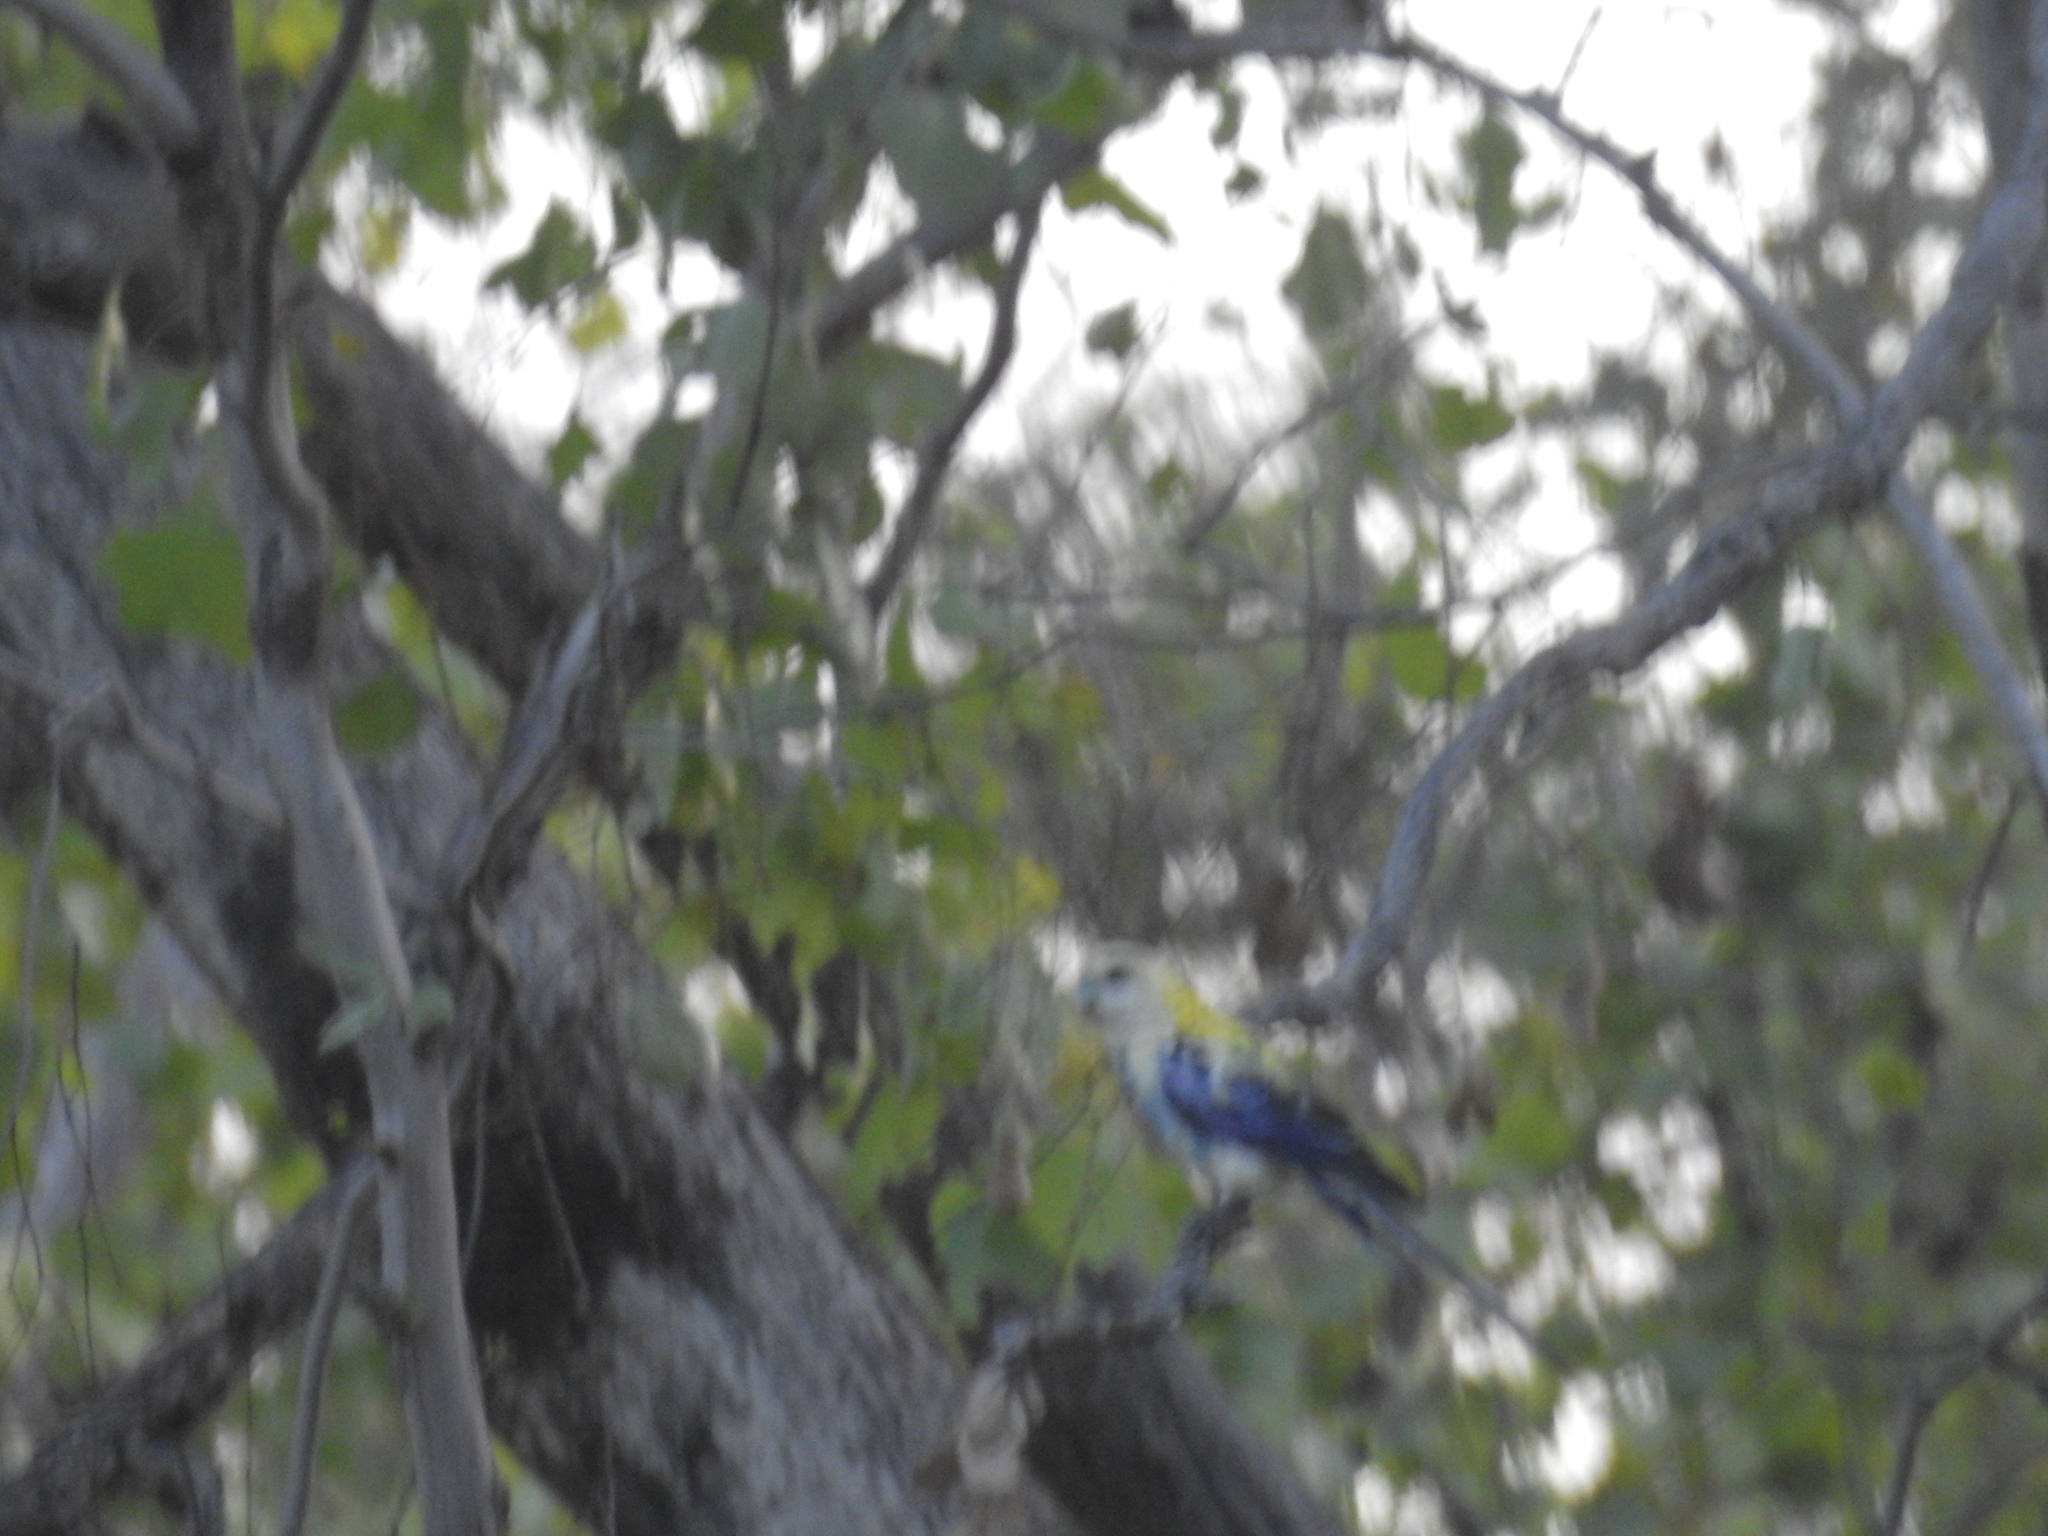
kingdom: Animalia
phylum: Chordata
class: Aves
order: Psittaciformes
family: Psittacidae
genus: Platycercus
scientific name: Platycercus adscitus
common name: Pale-headed rosella
